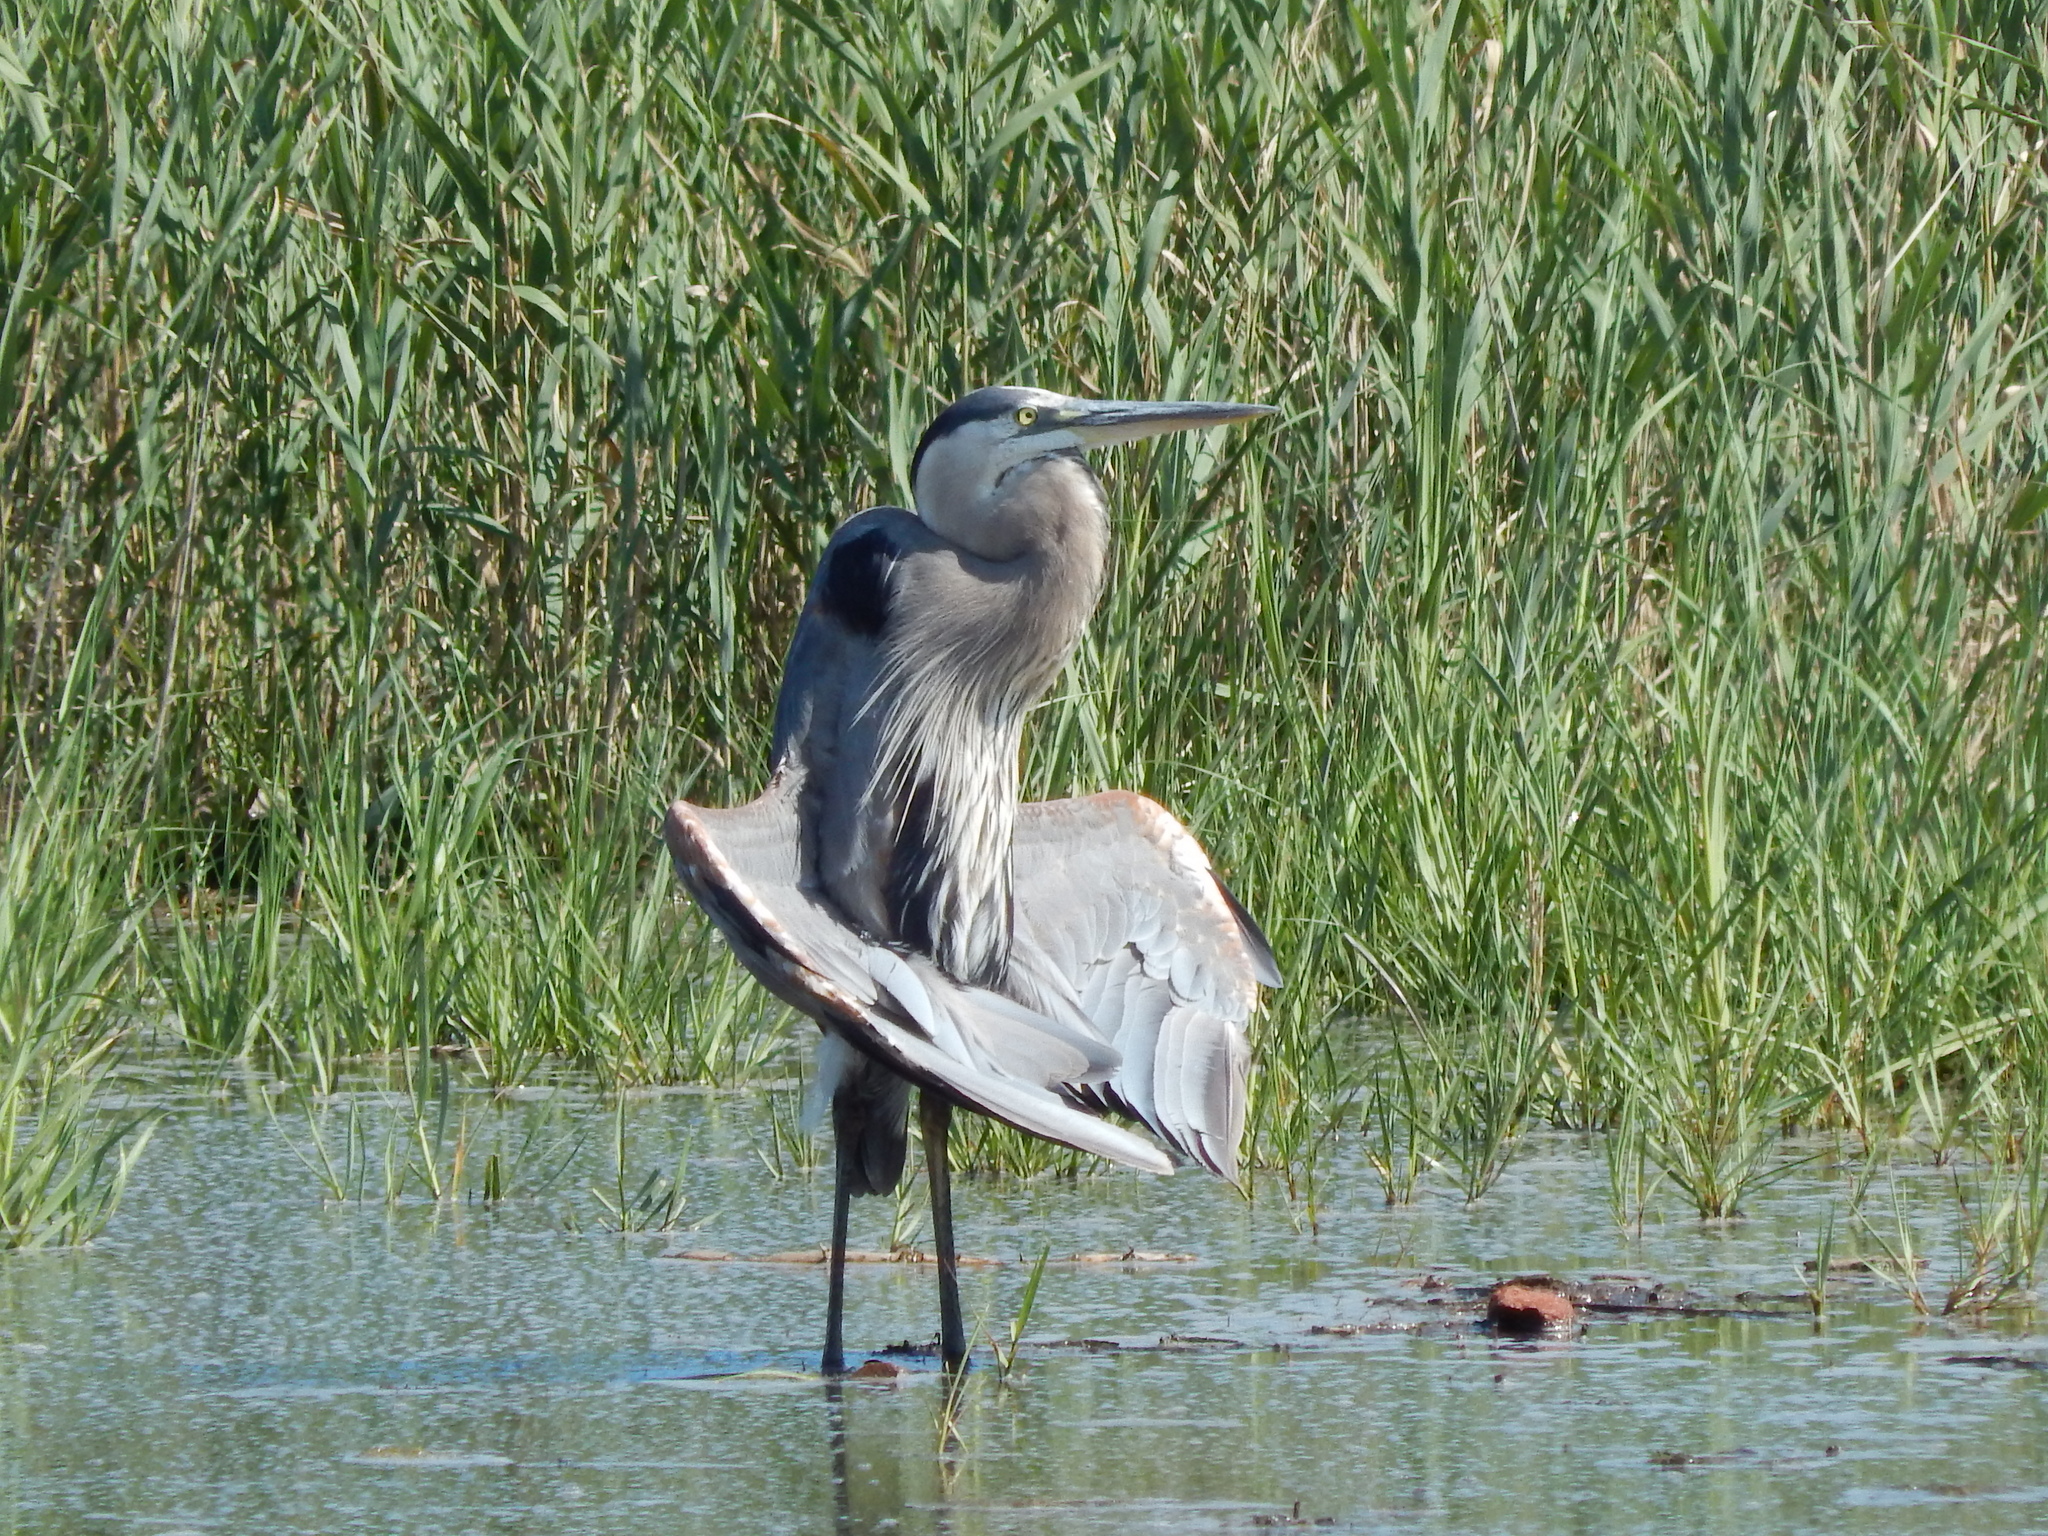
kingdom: Animalia
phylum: Chordata
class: Aves
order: Pelecaniformes
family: Ardeidae
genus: Ardea
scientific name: Ardea herodias
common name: Great blue heron
